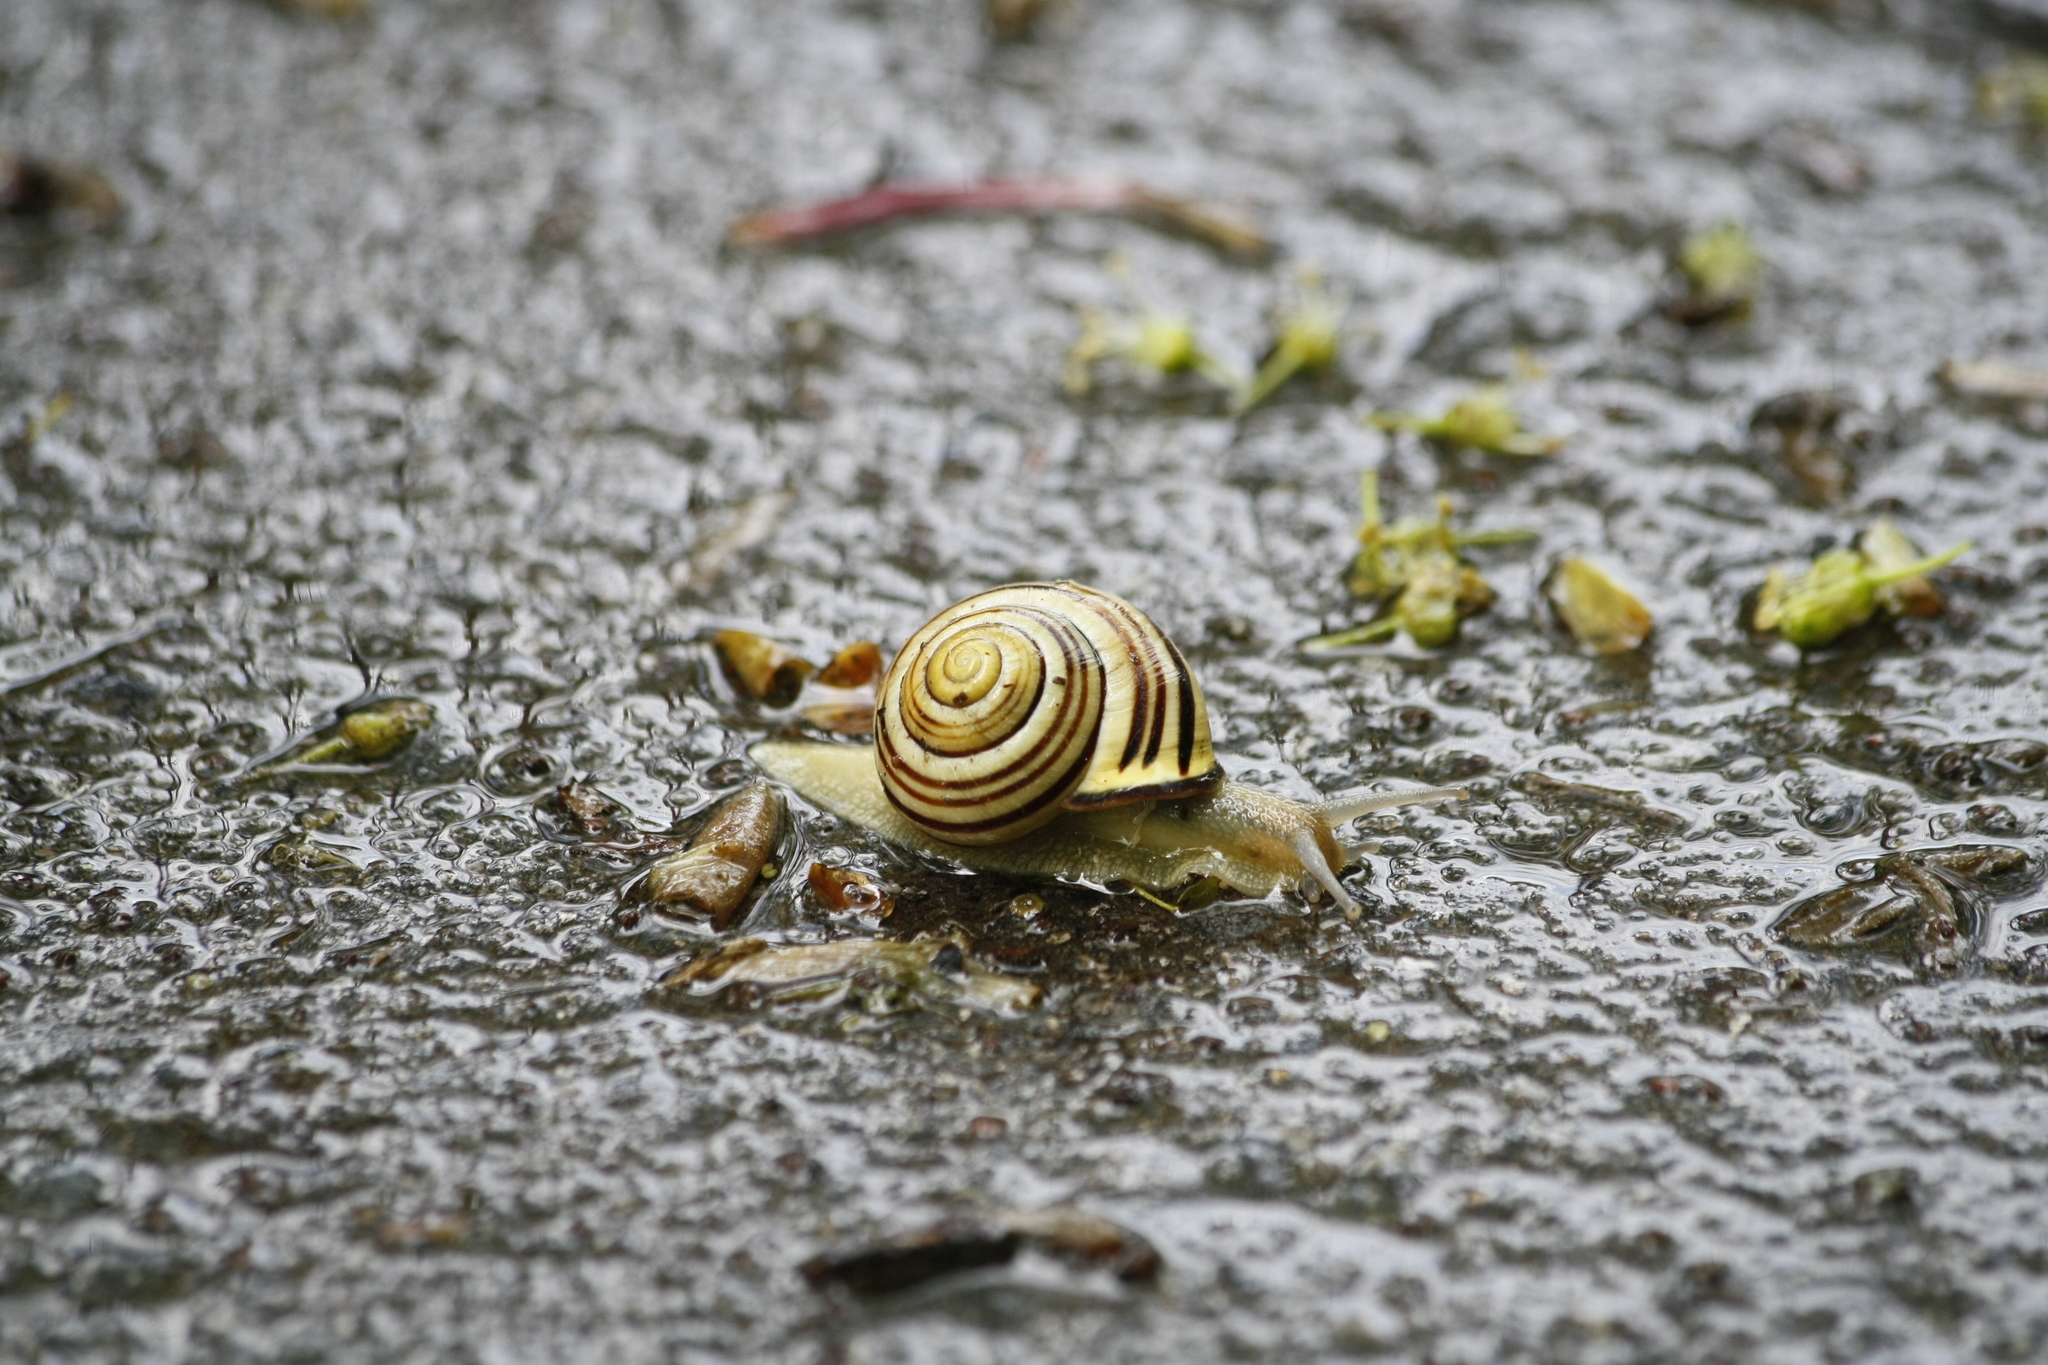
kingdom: Animalia
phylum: Mollusca
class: Gastropoda
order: Stylommatophora
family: Helicidae
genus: Cepaea
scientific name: Cepaea nemoralis
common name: Grovesnail
